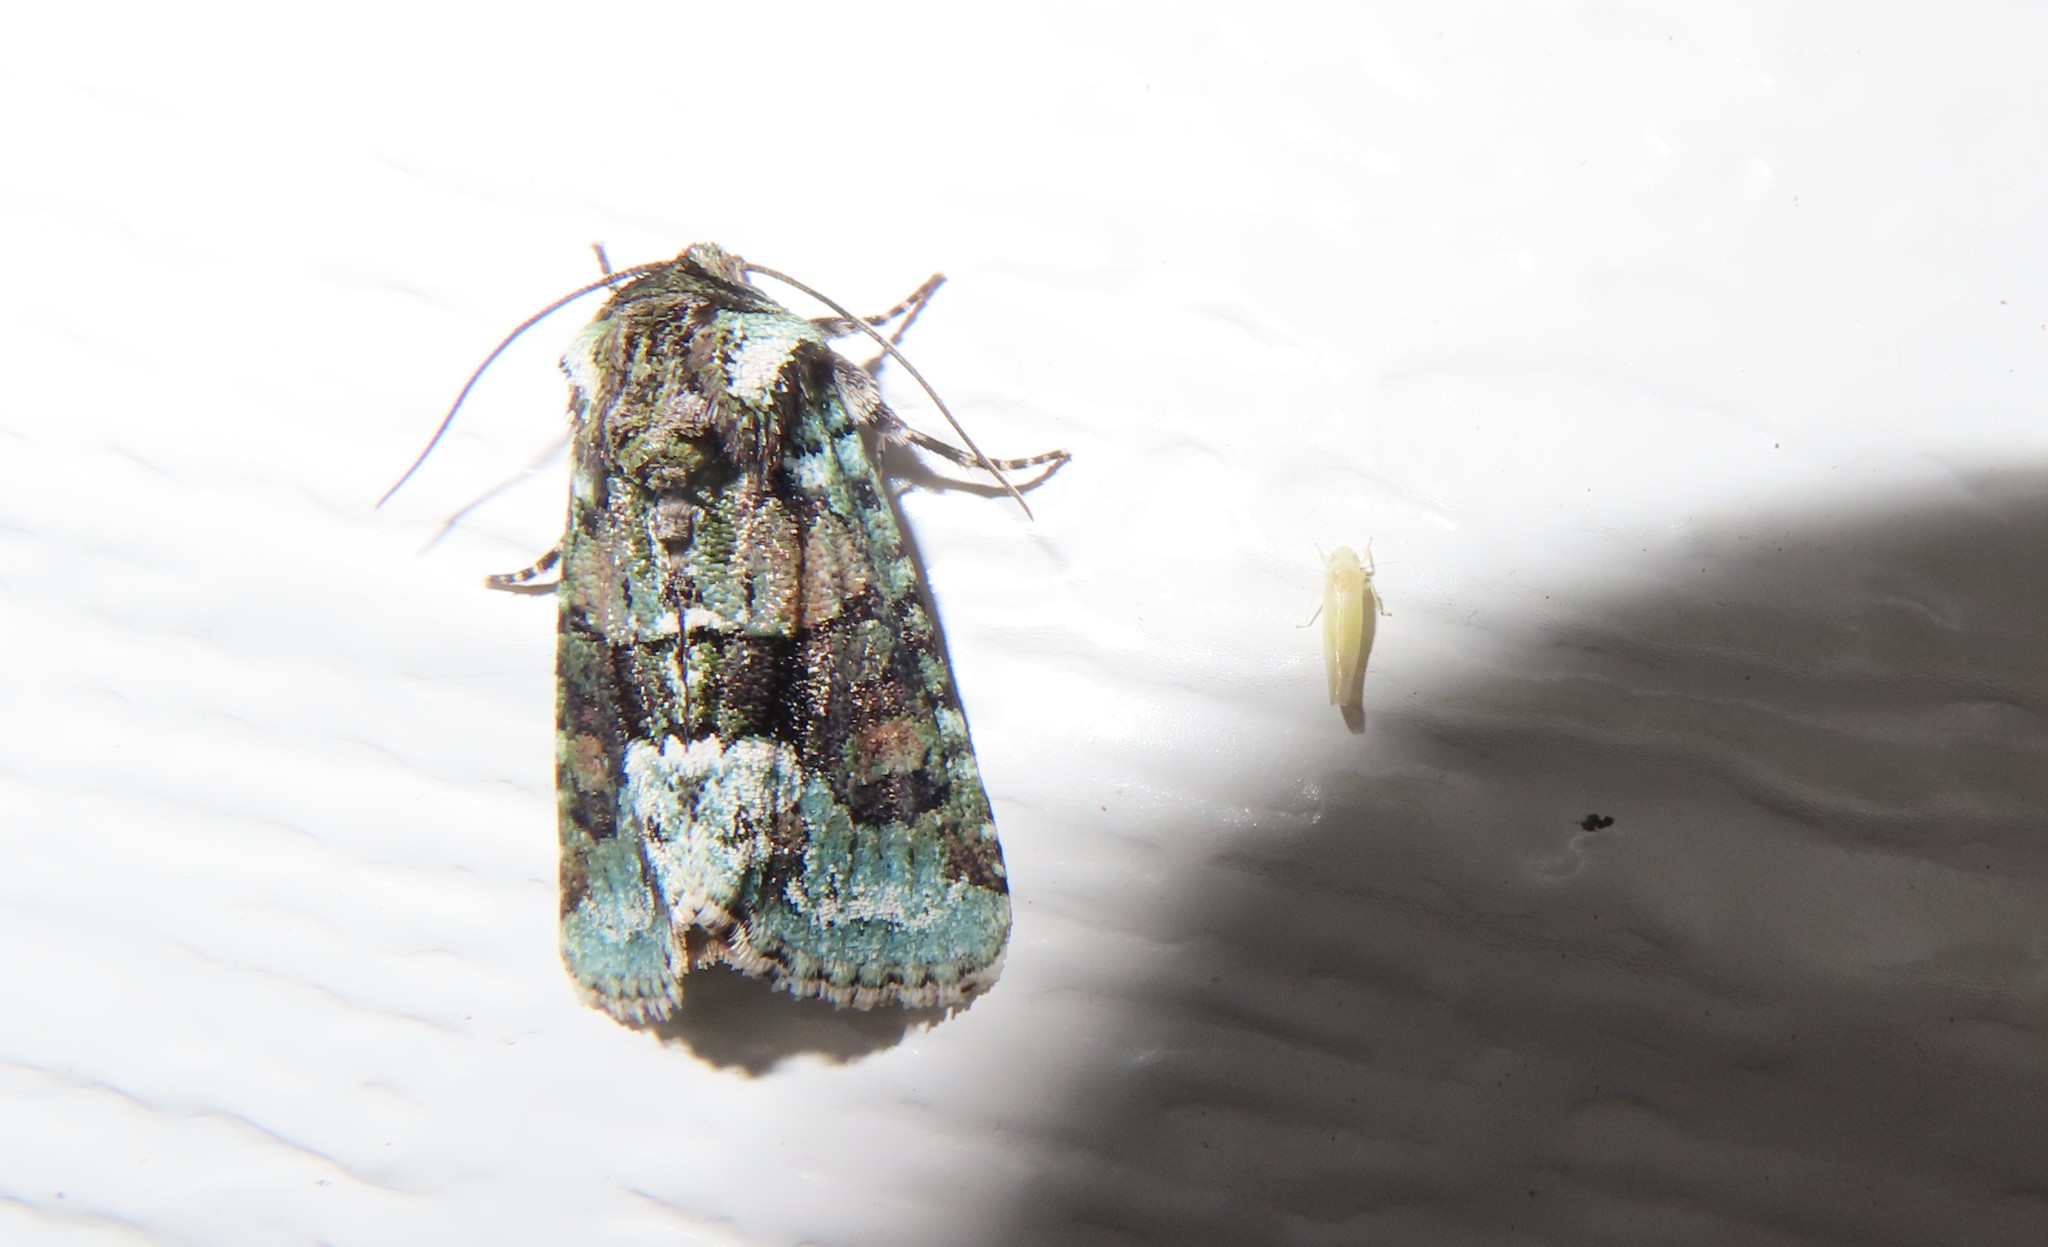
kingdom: Animalia
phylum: Arthropoda
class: Insecta
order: Lepidoptera
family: Noctuidae
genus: Lacinipolia
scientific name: Lacinipolia explicata
